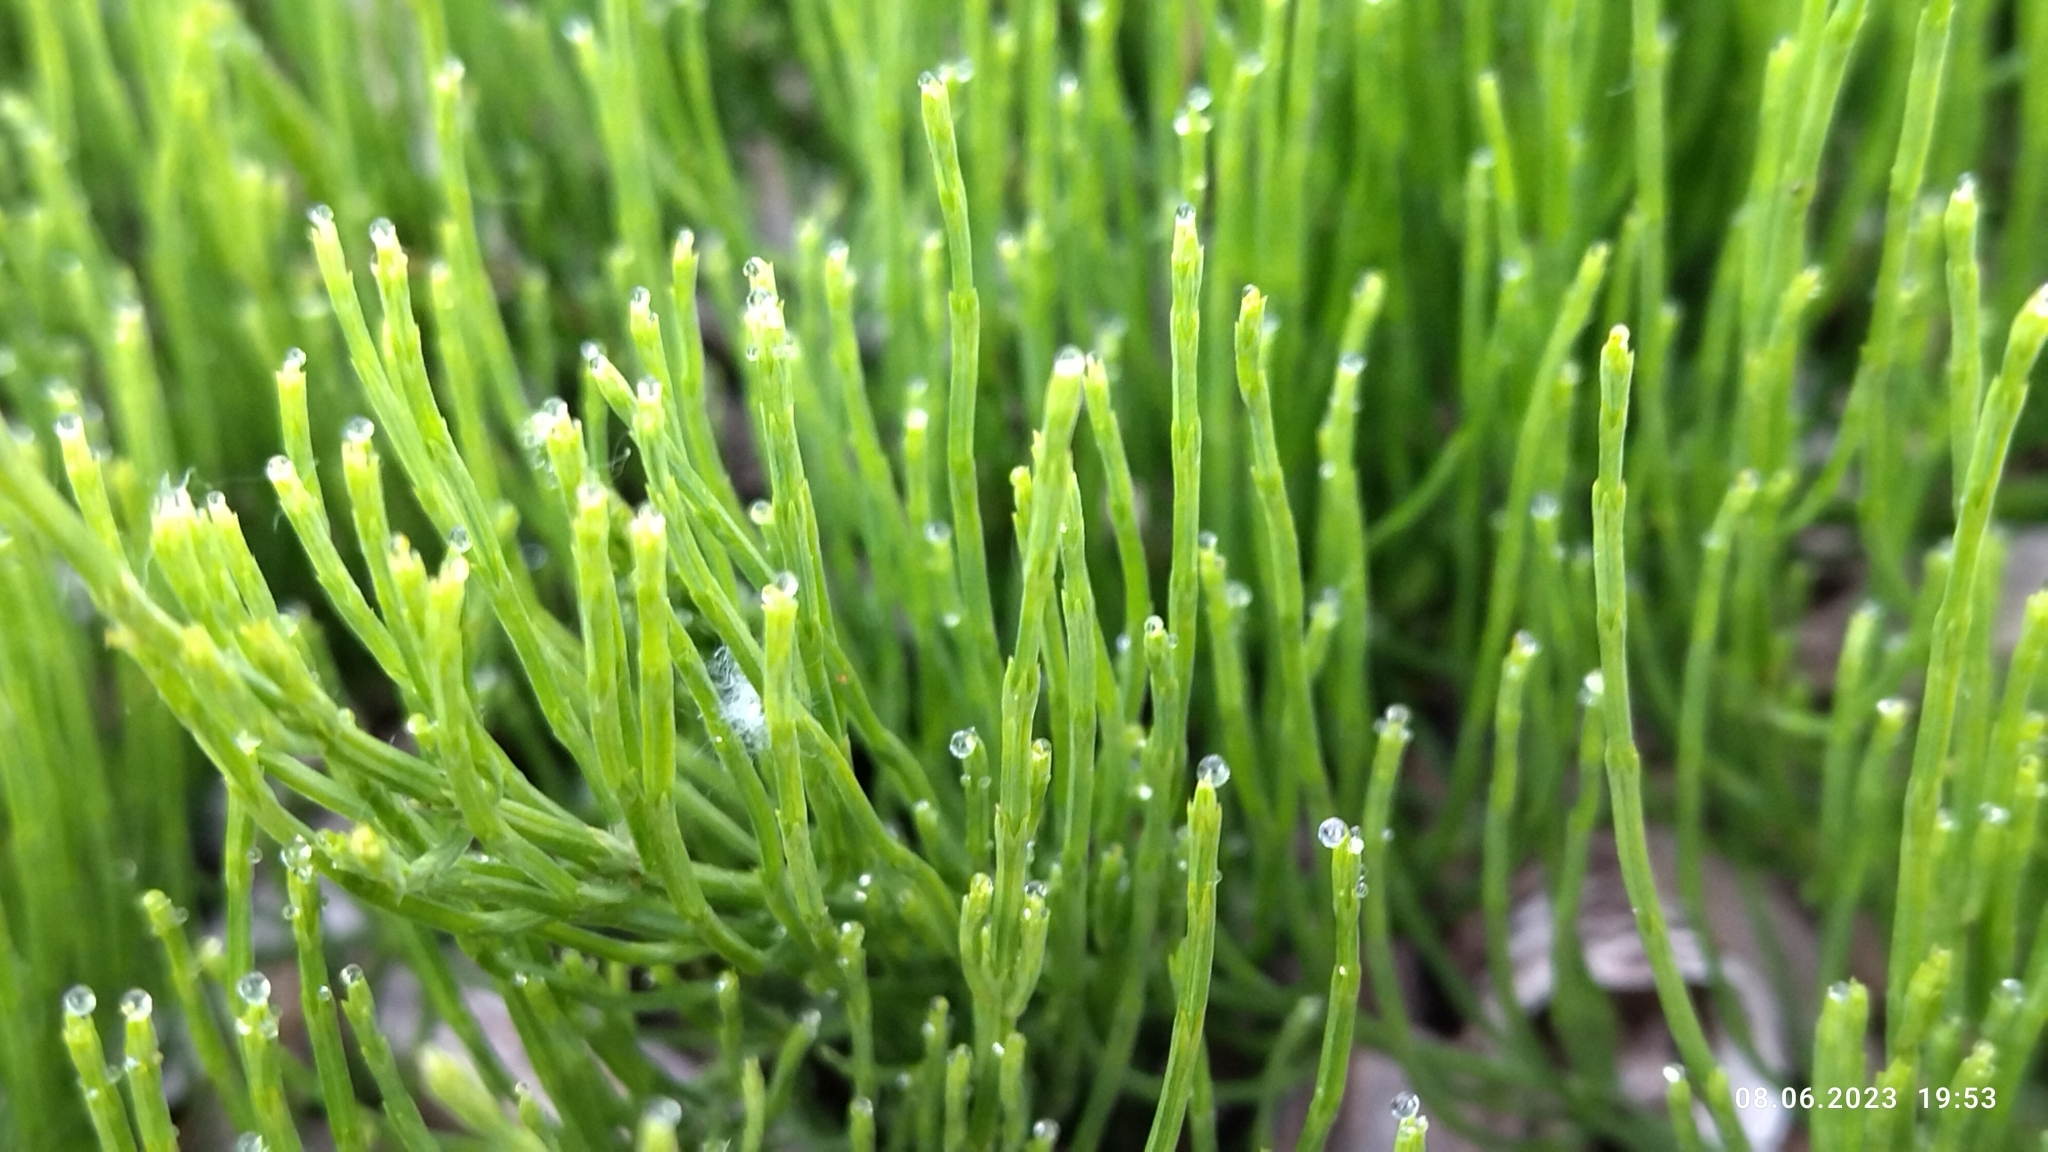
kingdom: Plantae
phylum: Tracheophyta
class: Polypodiopsida
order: Equisetales
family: Equisetaceae
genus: Equisetum
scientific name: Equisetum arvense
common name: Field horsetail
